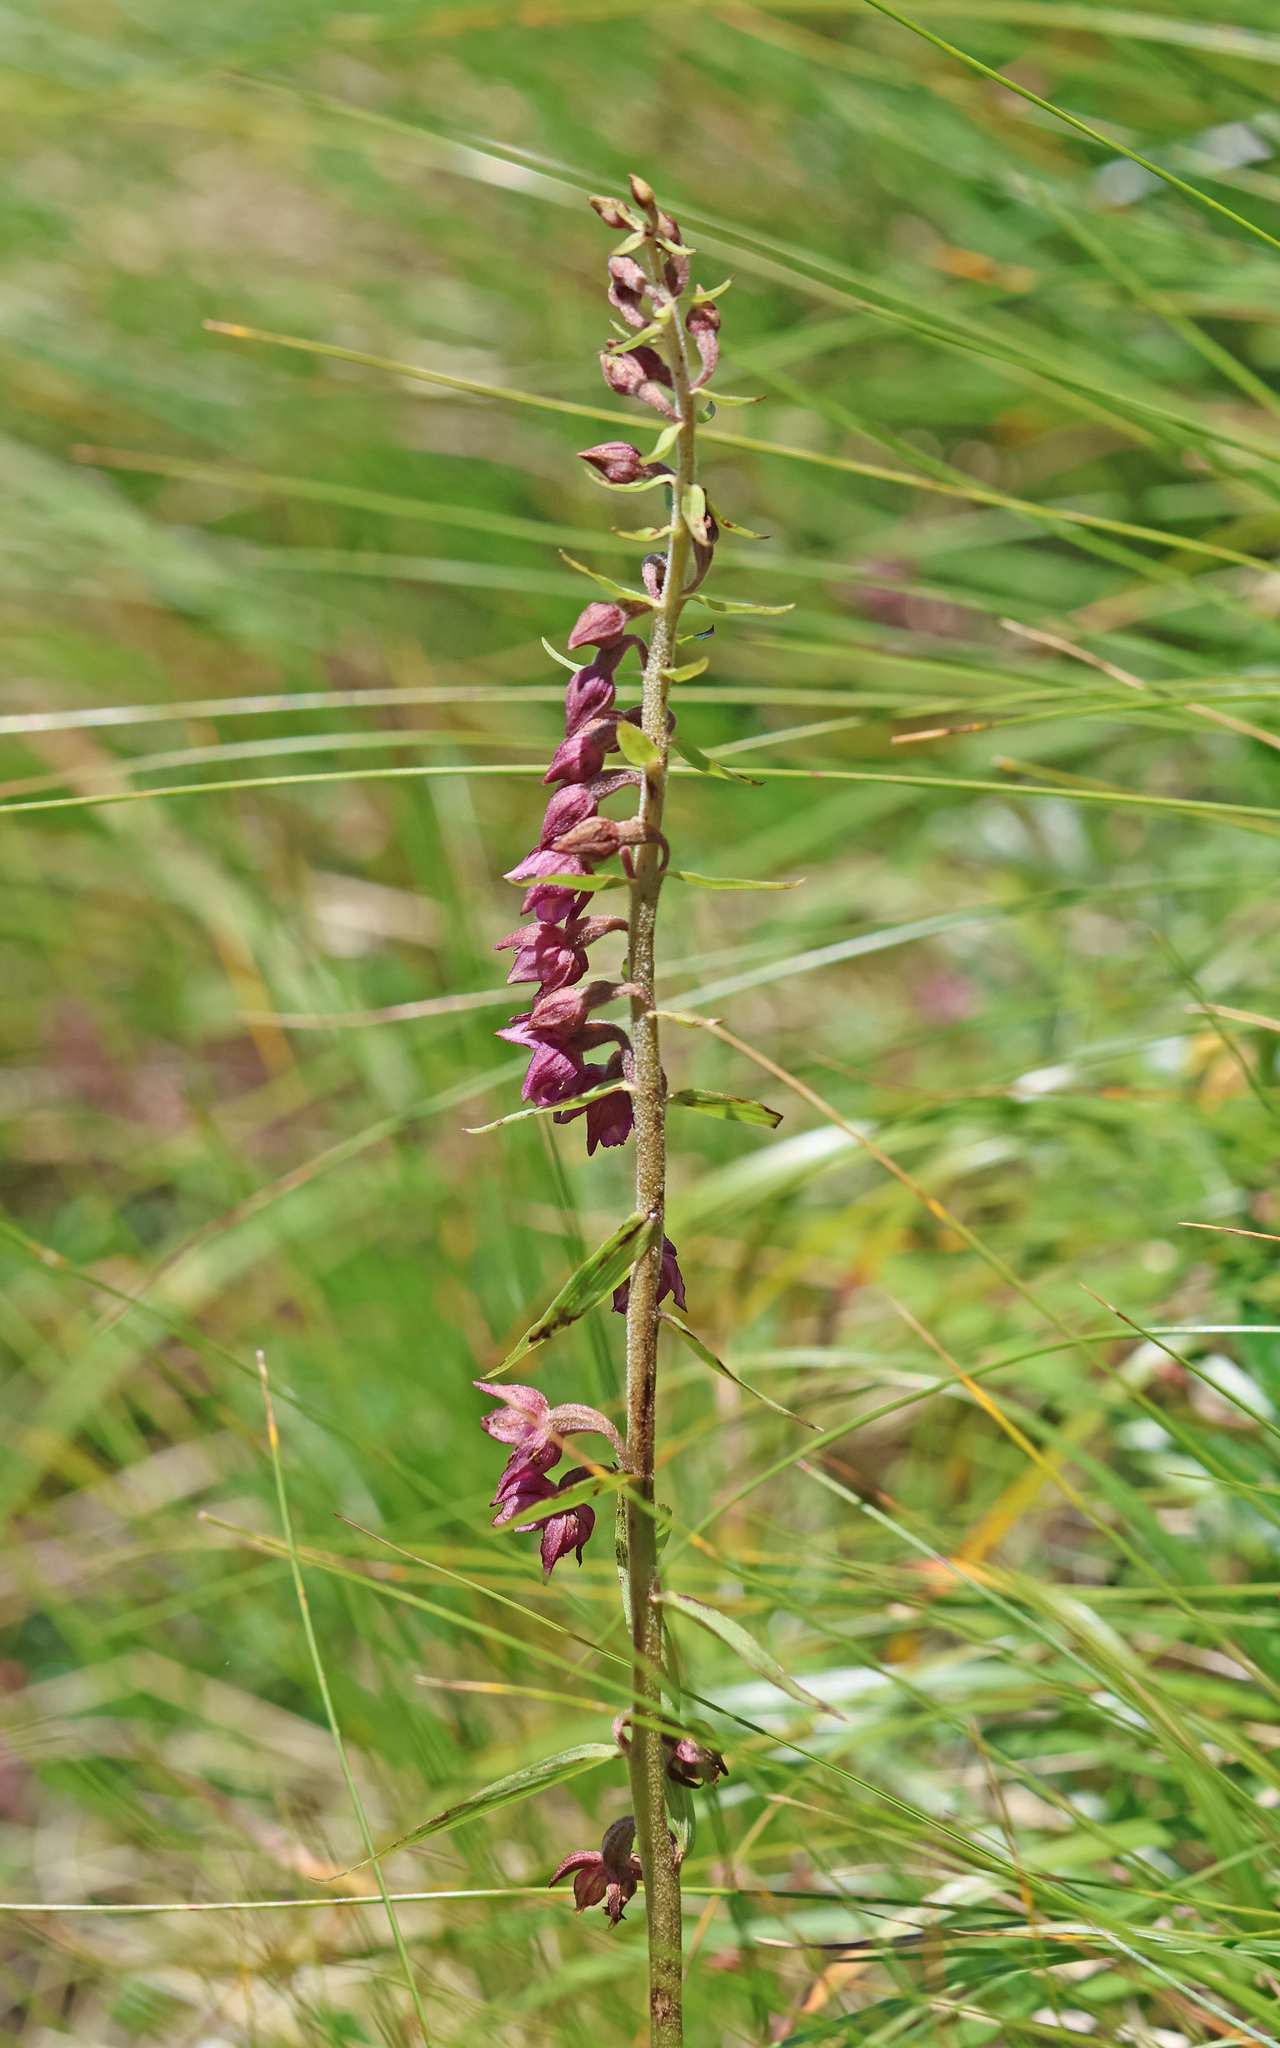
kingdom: Plantae
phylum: Tracheophyta
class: Liliopsida
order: Asparagales
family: Orchidaceae
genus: Epipactis
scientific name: Epipactis atrorubens
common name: Dark-red helleborine
